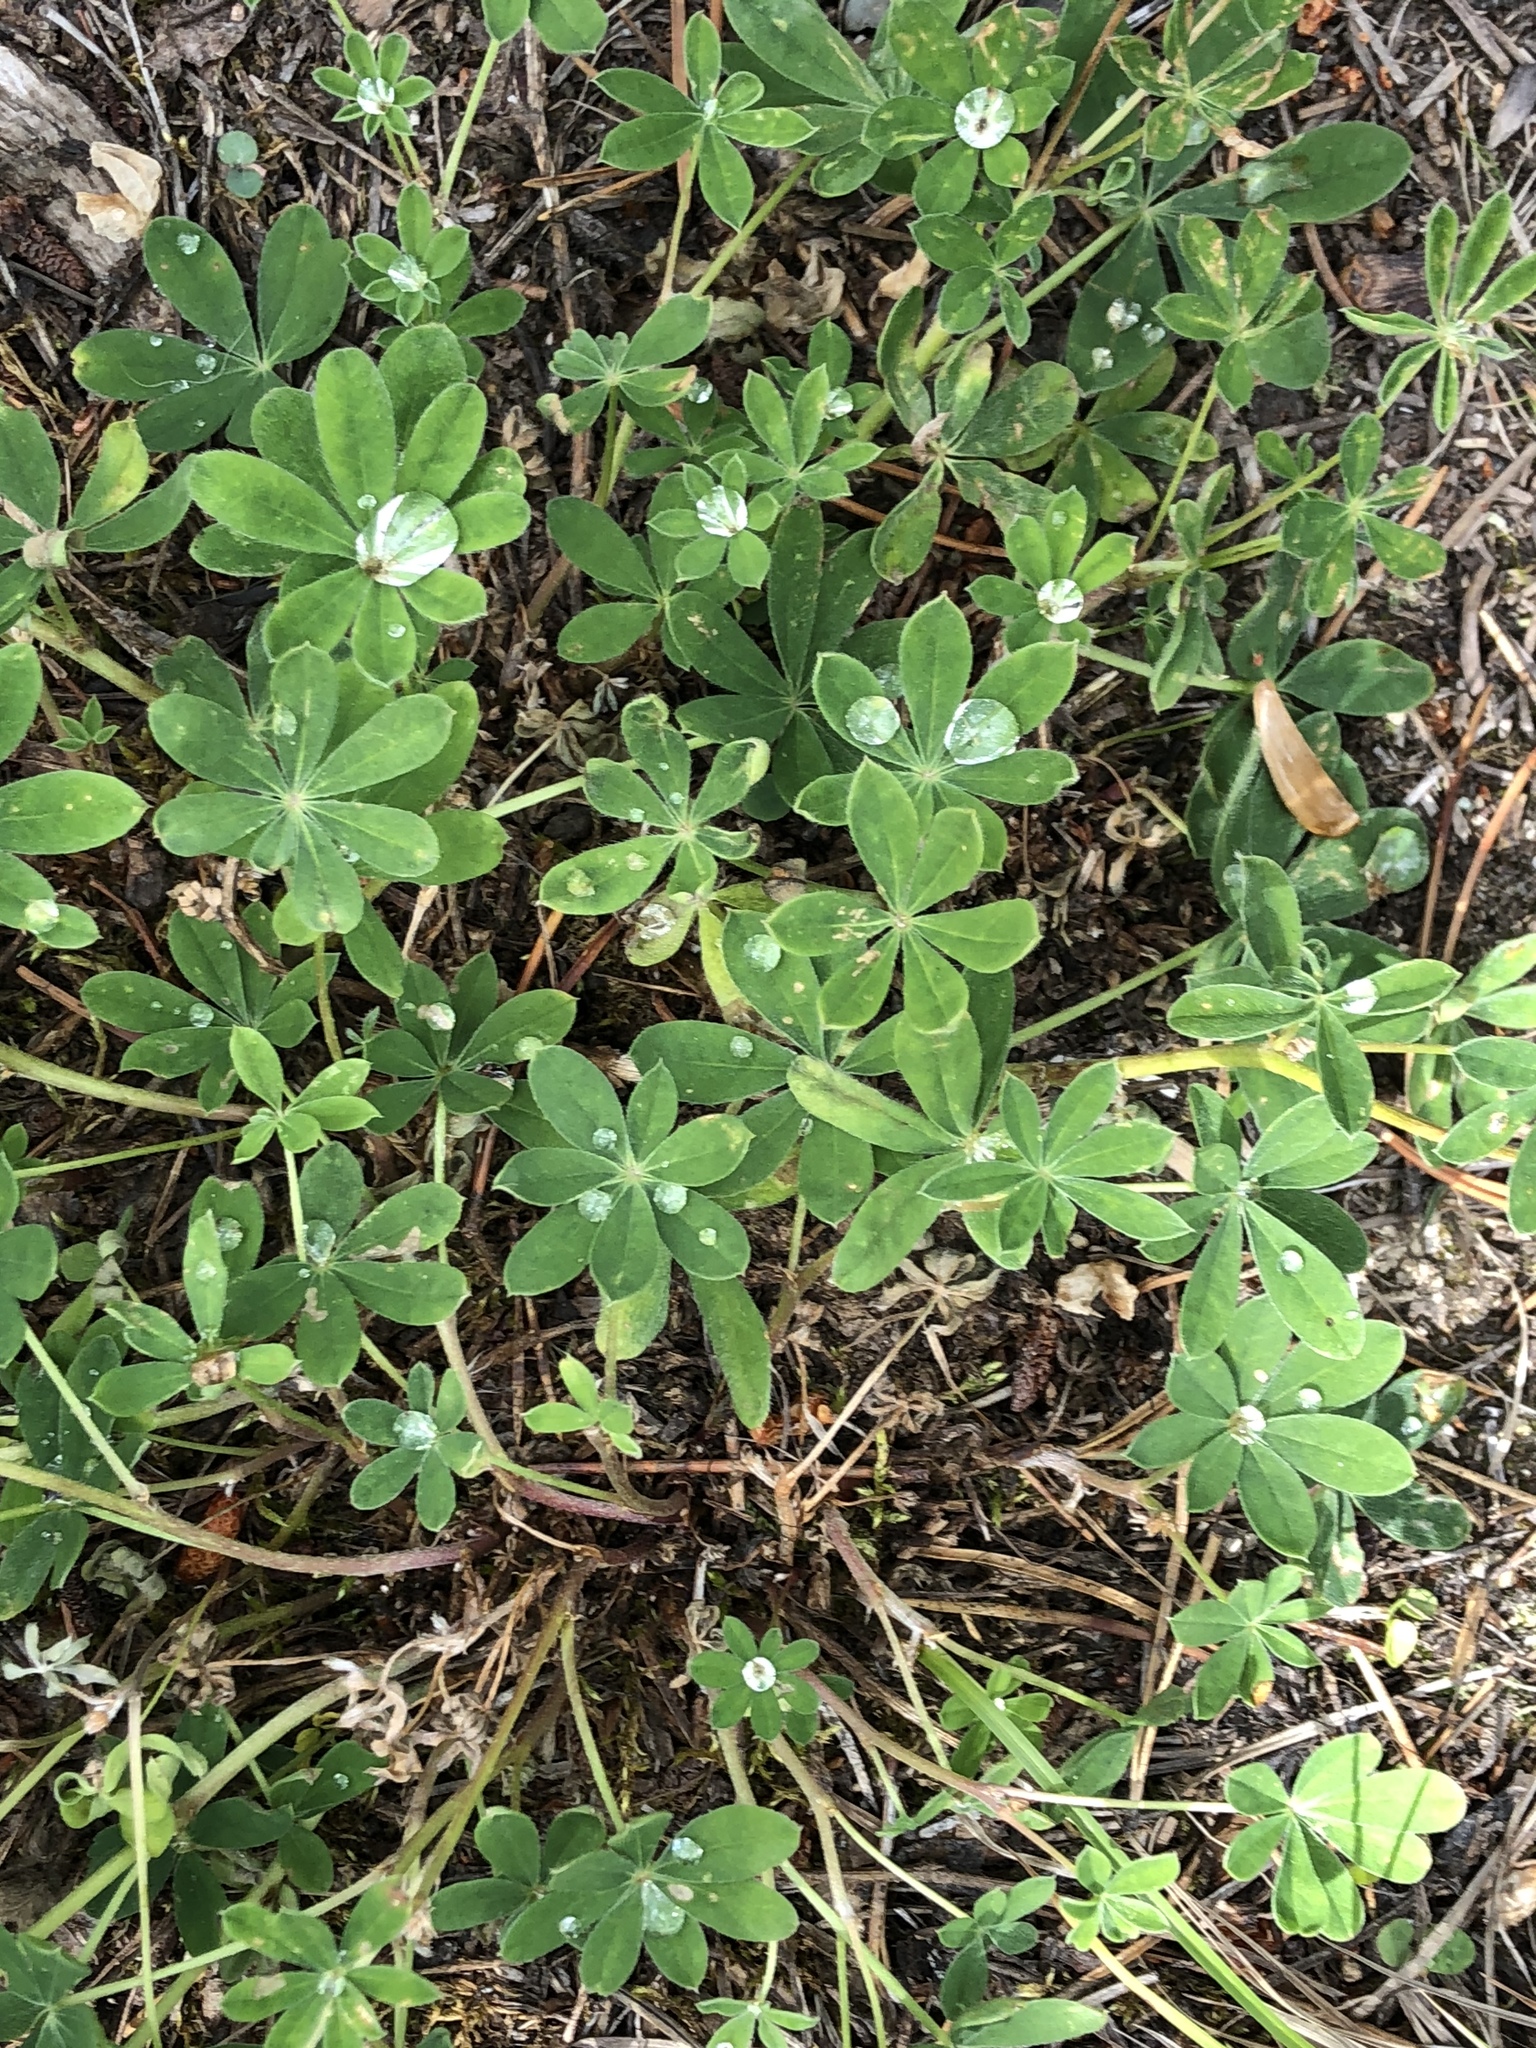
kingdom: Plantae
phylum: Tracheophyta
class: Magnoliopsida
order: Fabales
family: Fabaceae
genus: Lupinus
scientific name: Lupinus arcticus
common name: Arctic lupine
